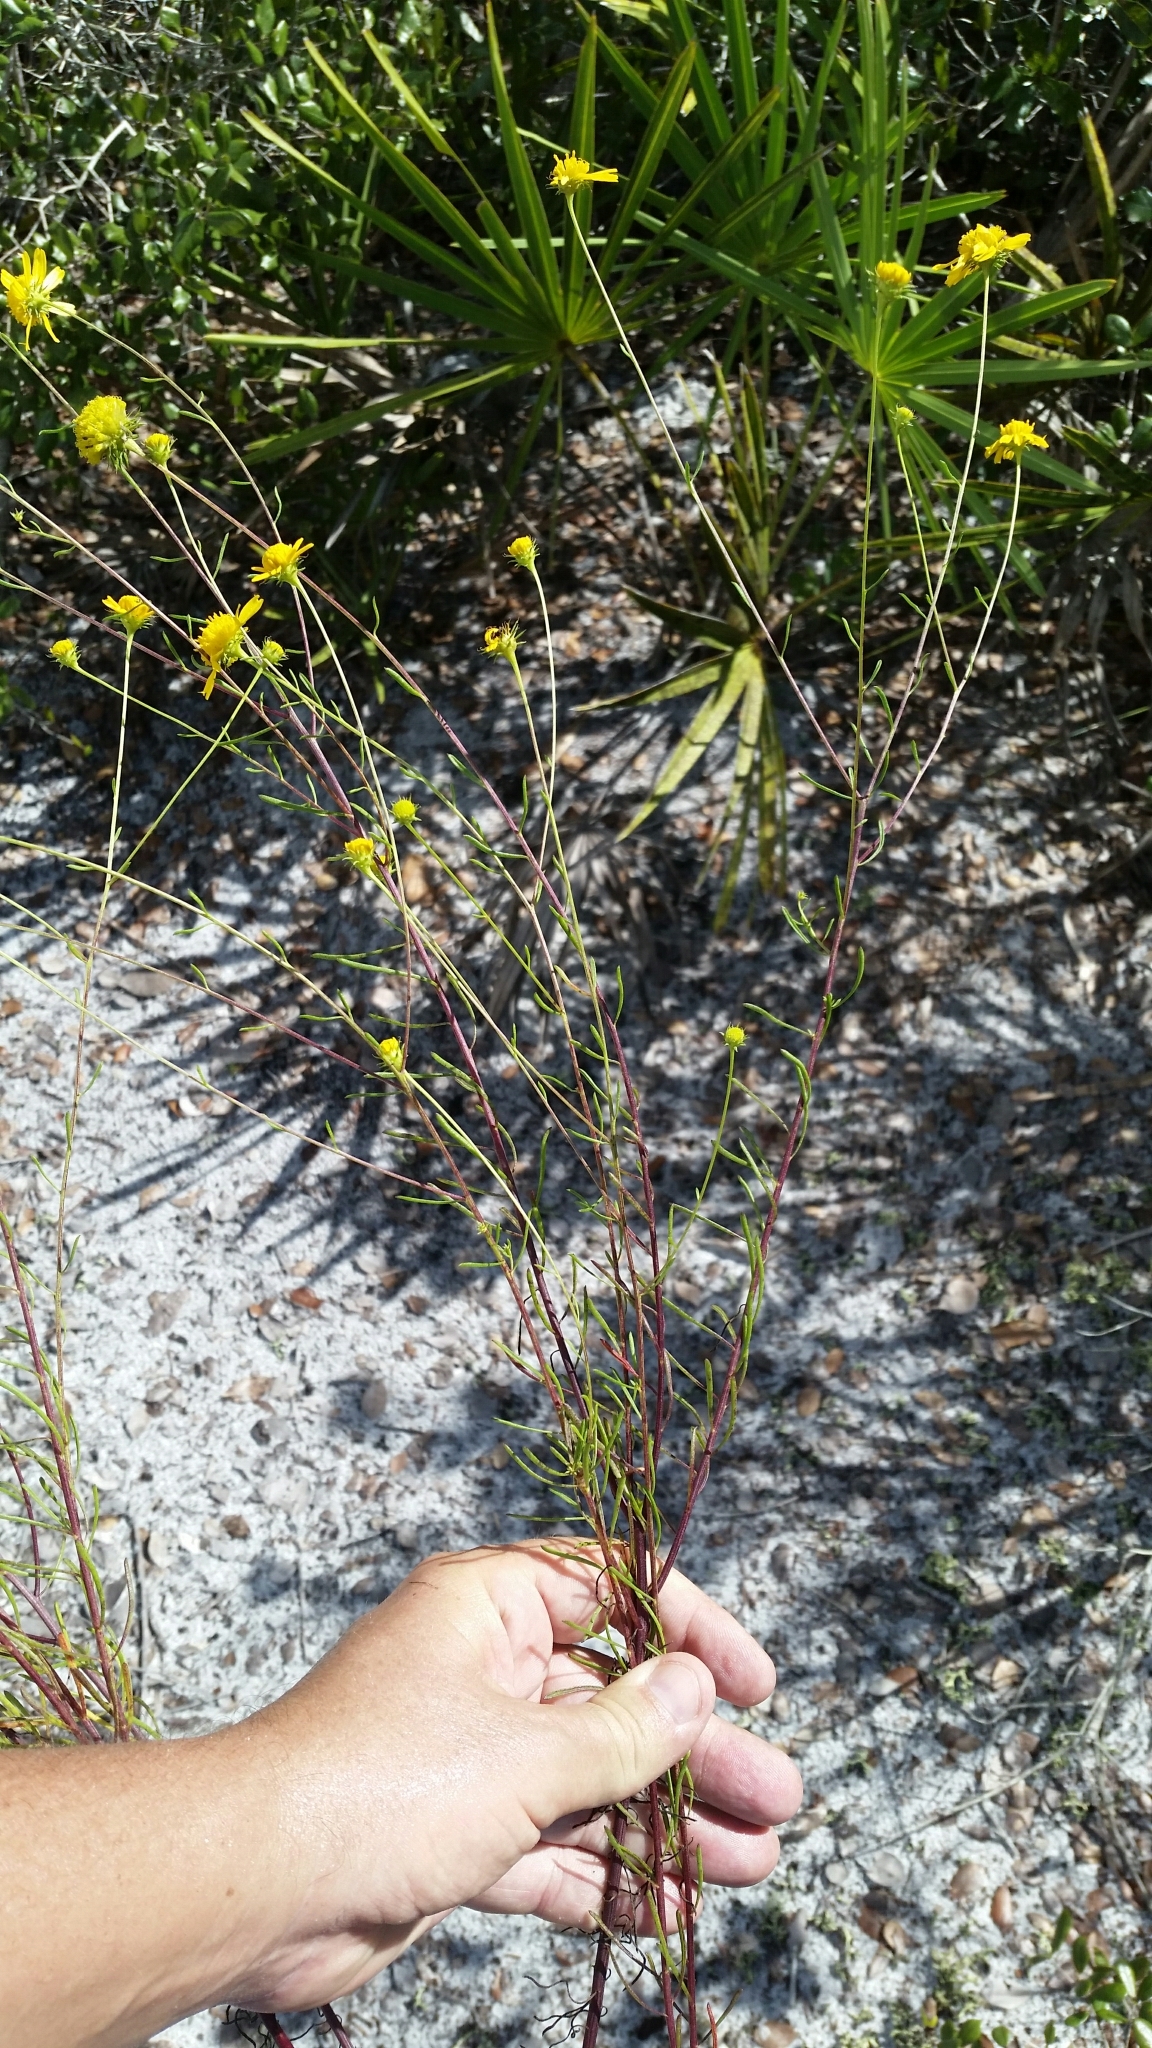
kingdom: Plantae
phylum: Tracheophyta
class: Magnoliopsida
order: Asterales
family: Asteraceae
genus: Balduina
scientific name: Balduina angustifolia
